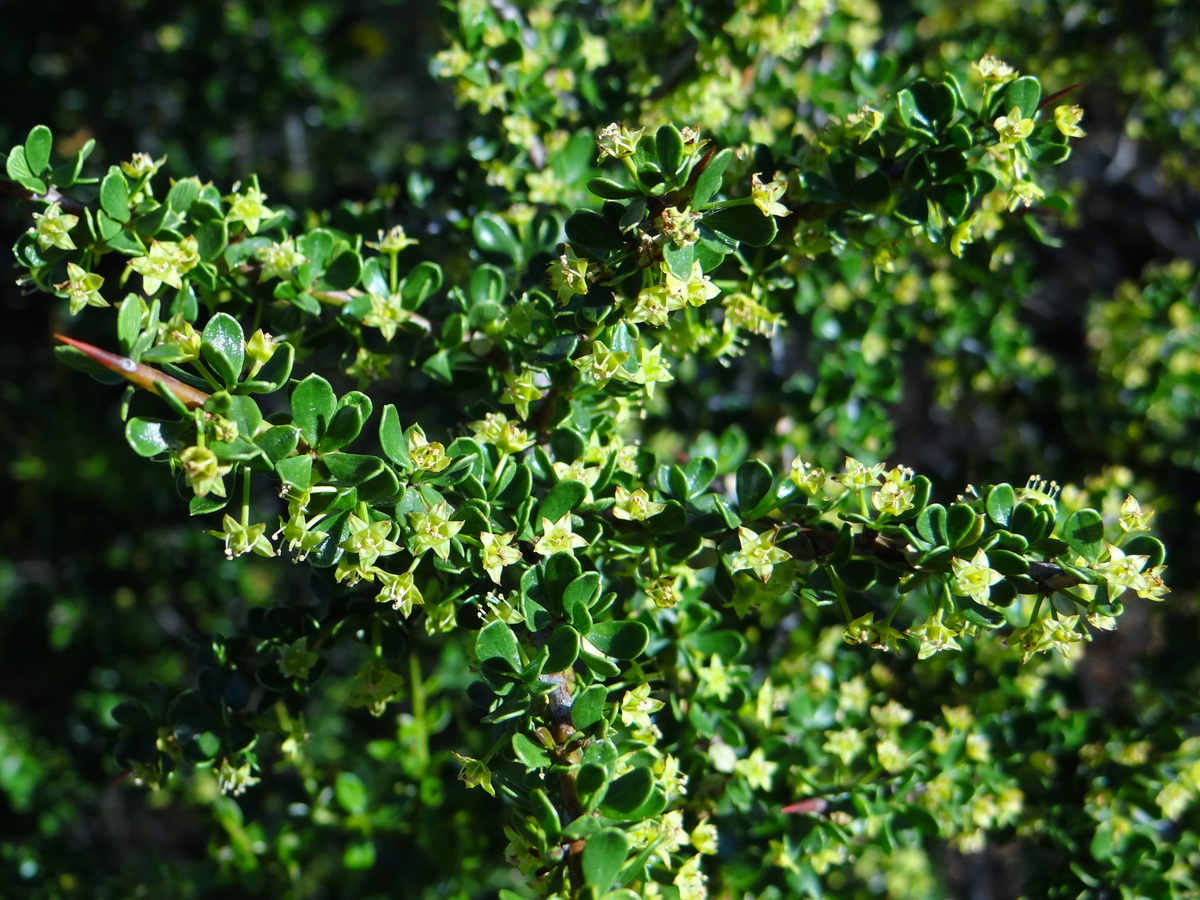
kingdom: Plantae
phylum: Tracheophyta
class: Magnoliopsida
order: Rosales
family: Rhamnaceae
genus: Condalia
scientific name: Condalia microphylla
